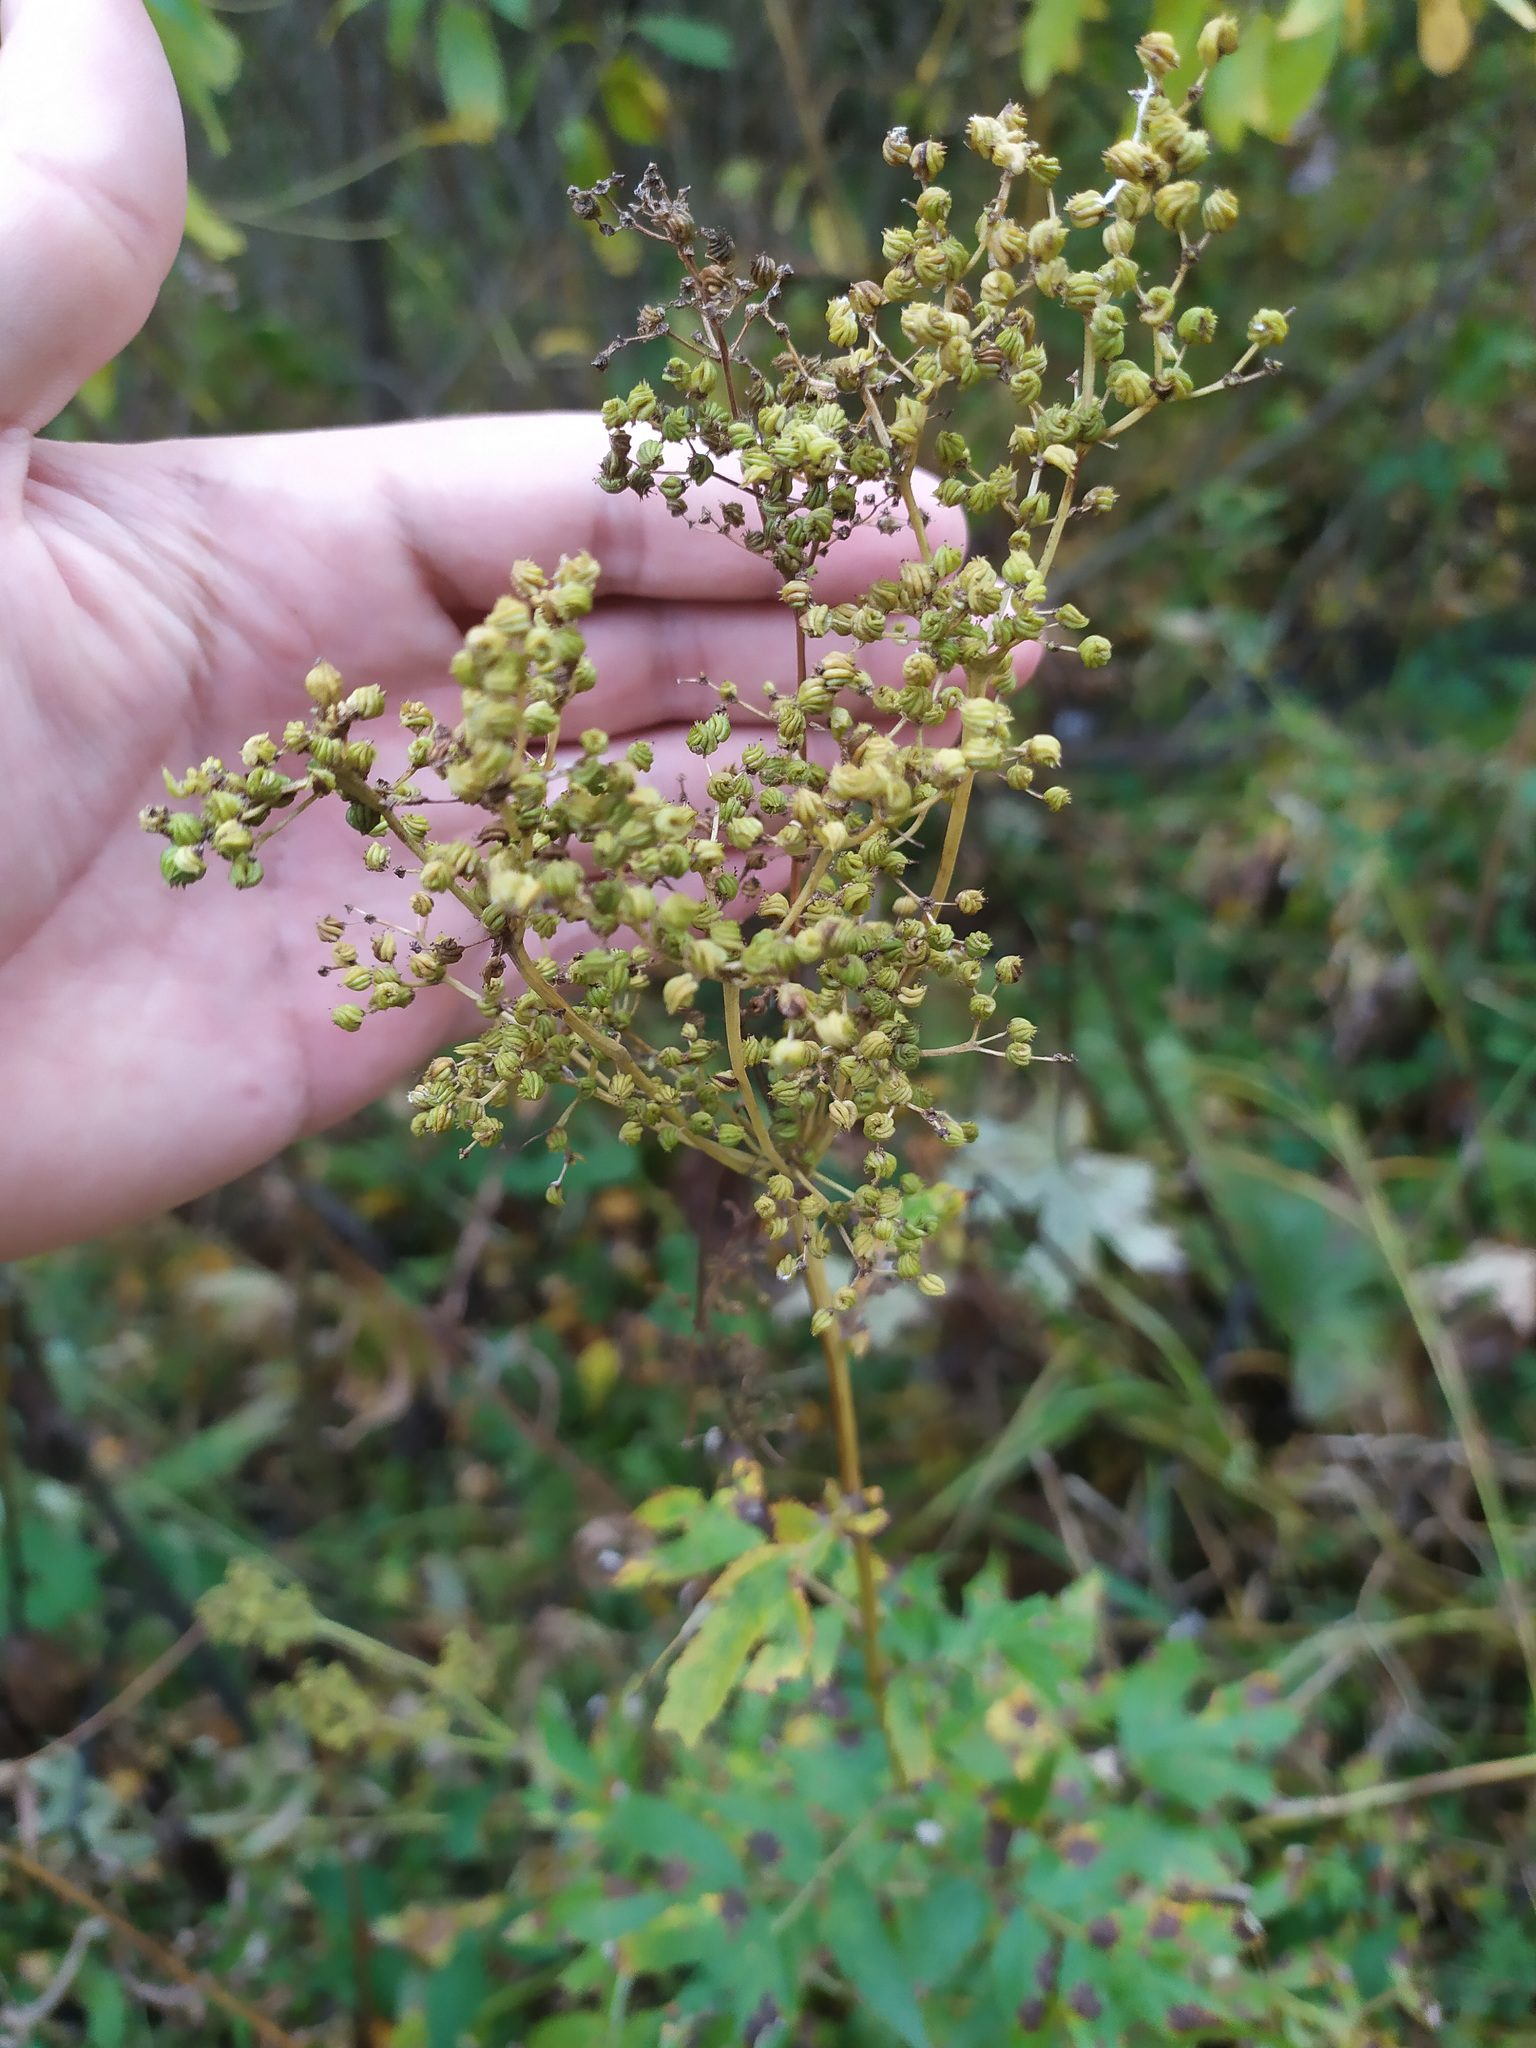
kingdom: Plantae
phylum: Tracheophyta
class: Magnoliopsida
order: Rosales
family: Rosaceae
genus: Filipendula
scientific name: Filipendula ulmaria
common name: Meadowsweet
